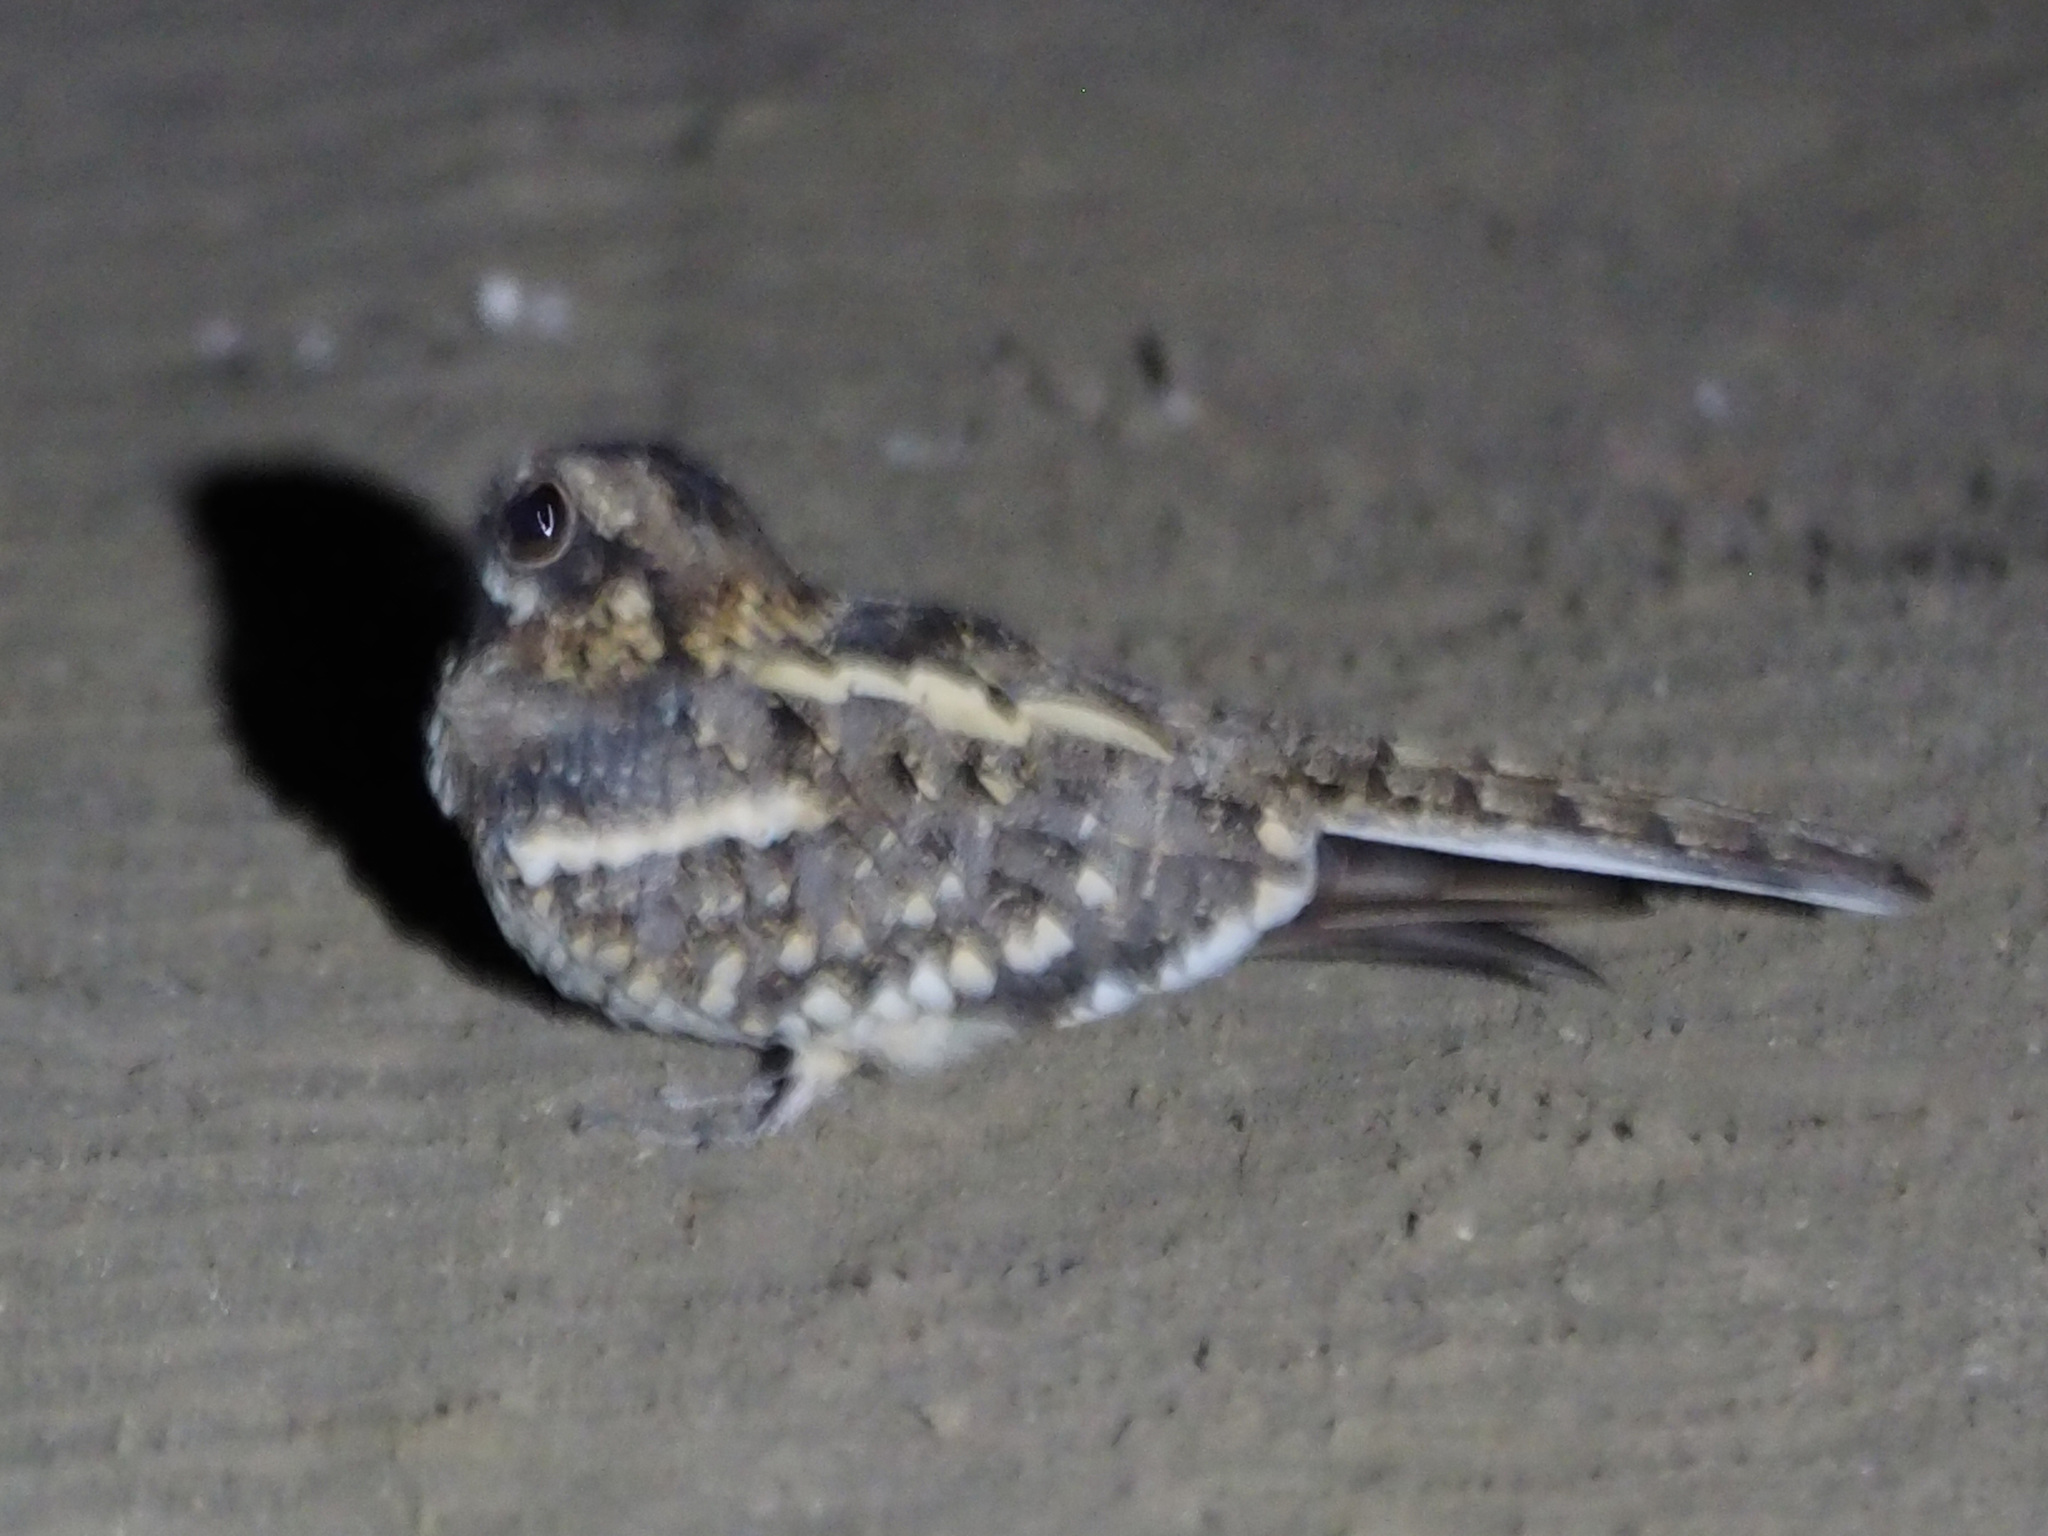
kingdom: Animalia
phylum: Chordata
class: Aves
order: Caprimulgiformes
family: Caprimulgidae
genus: Caprimulgus
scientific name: Caprimulgus fossii
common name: Square-tailed nightjar
